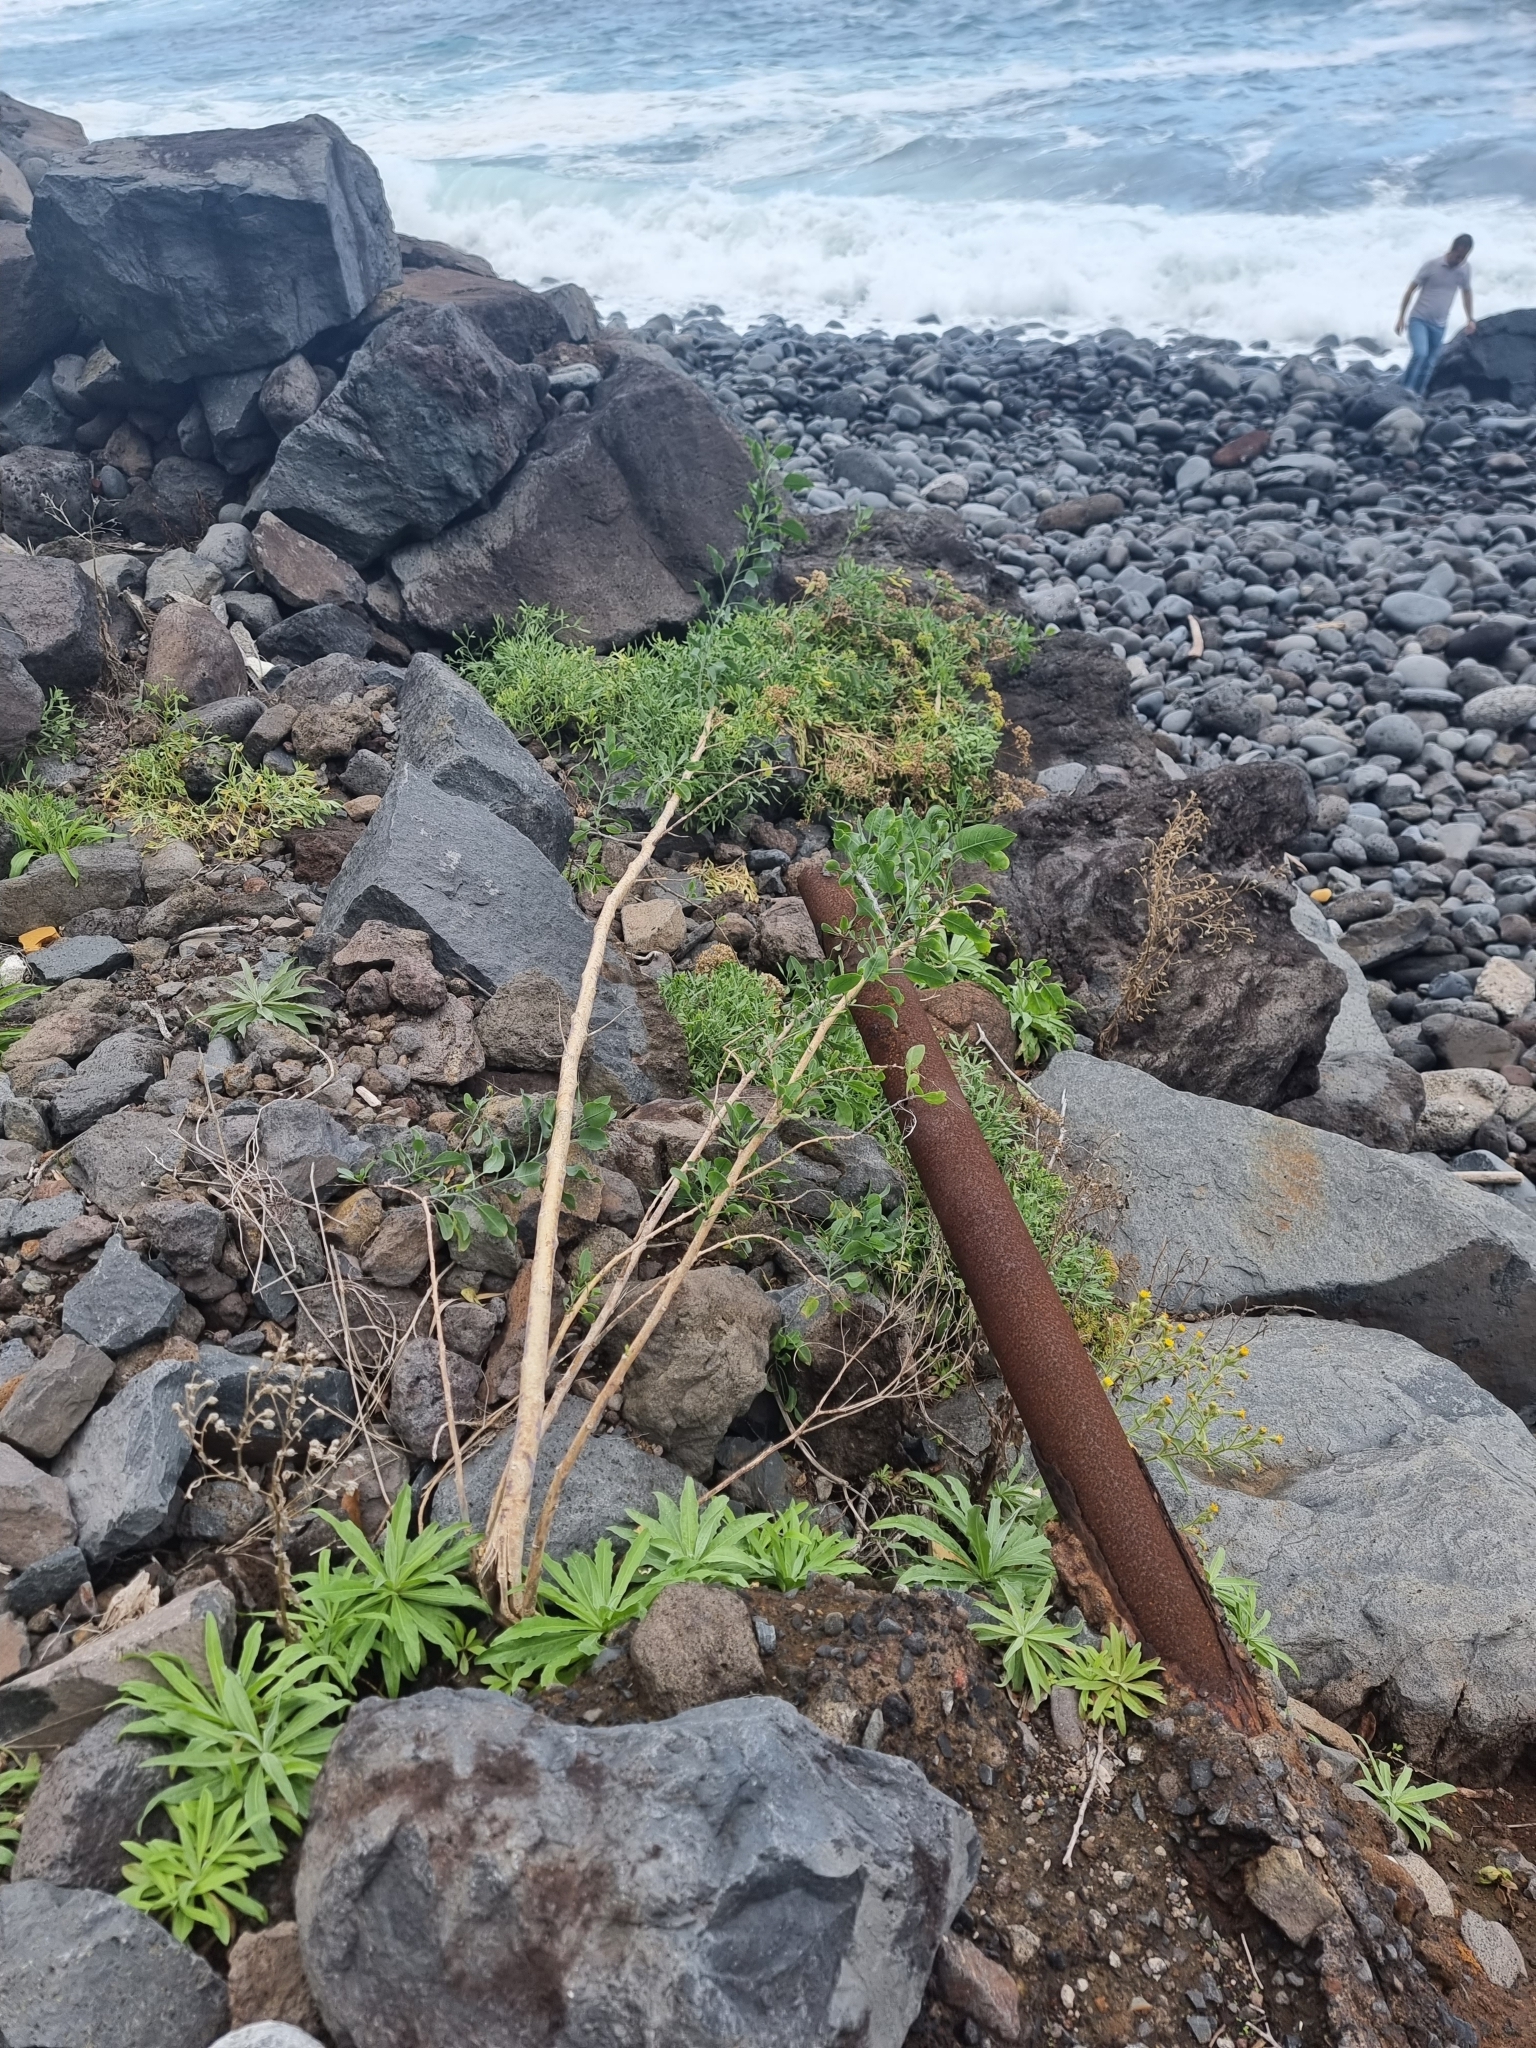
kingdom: Plantae
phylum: Tracheophyta
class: Magnoliopsida
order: Solanales
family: Solanaceae
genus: Nicotiana
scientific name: Nicotiana glauca
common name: Tree tobacco
